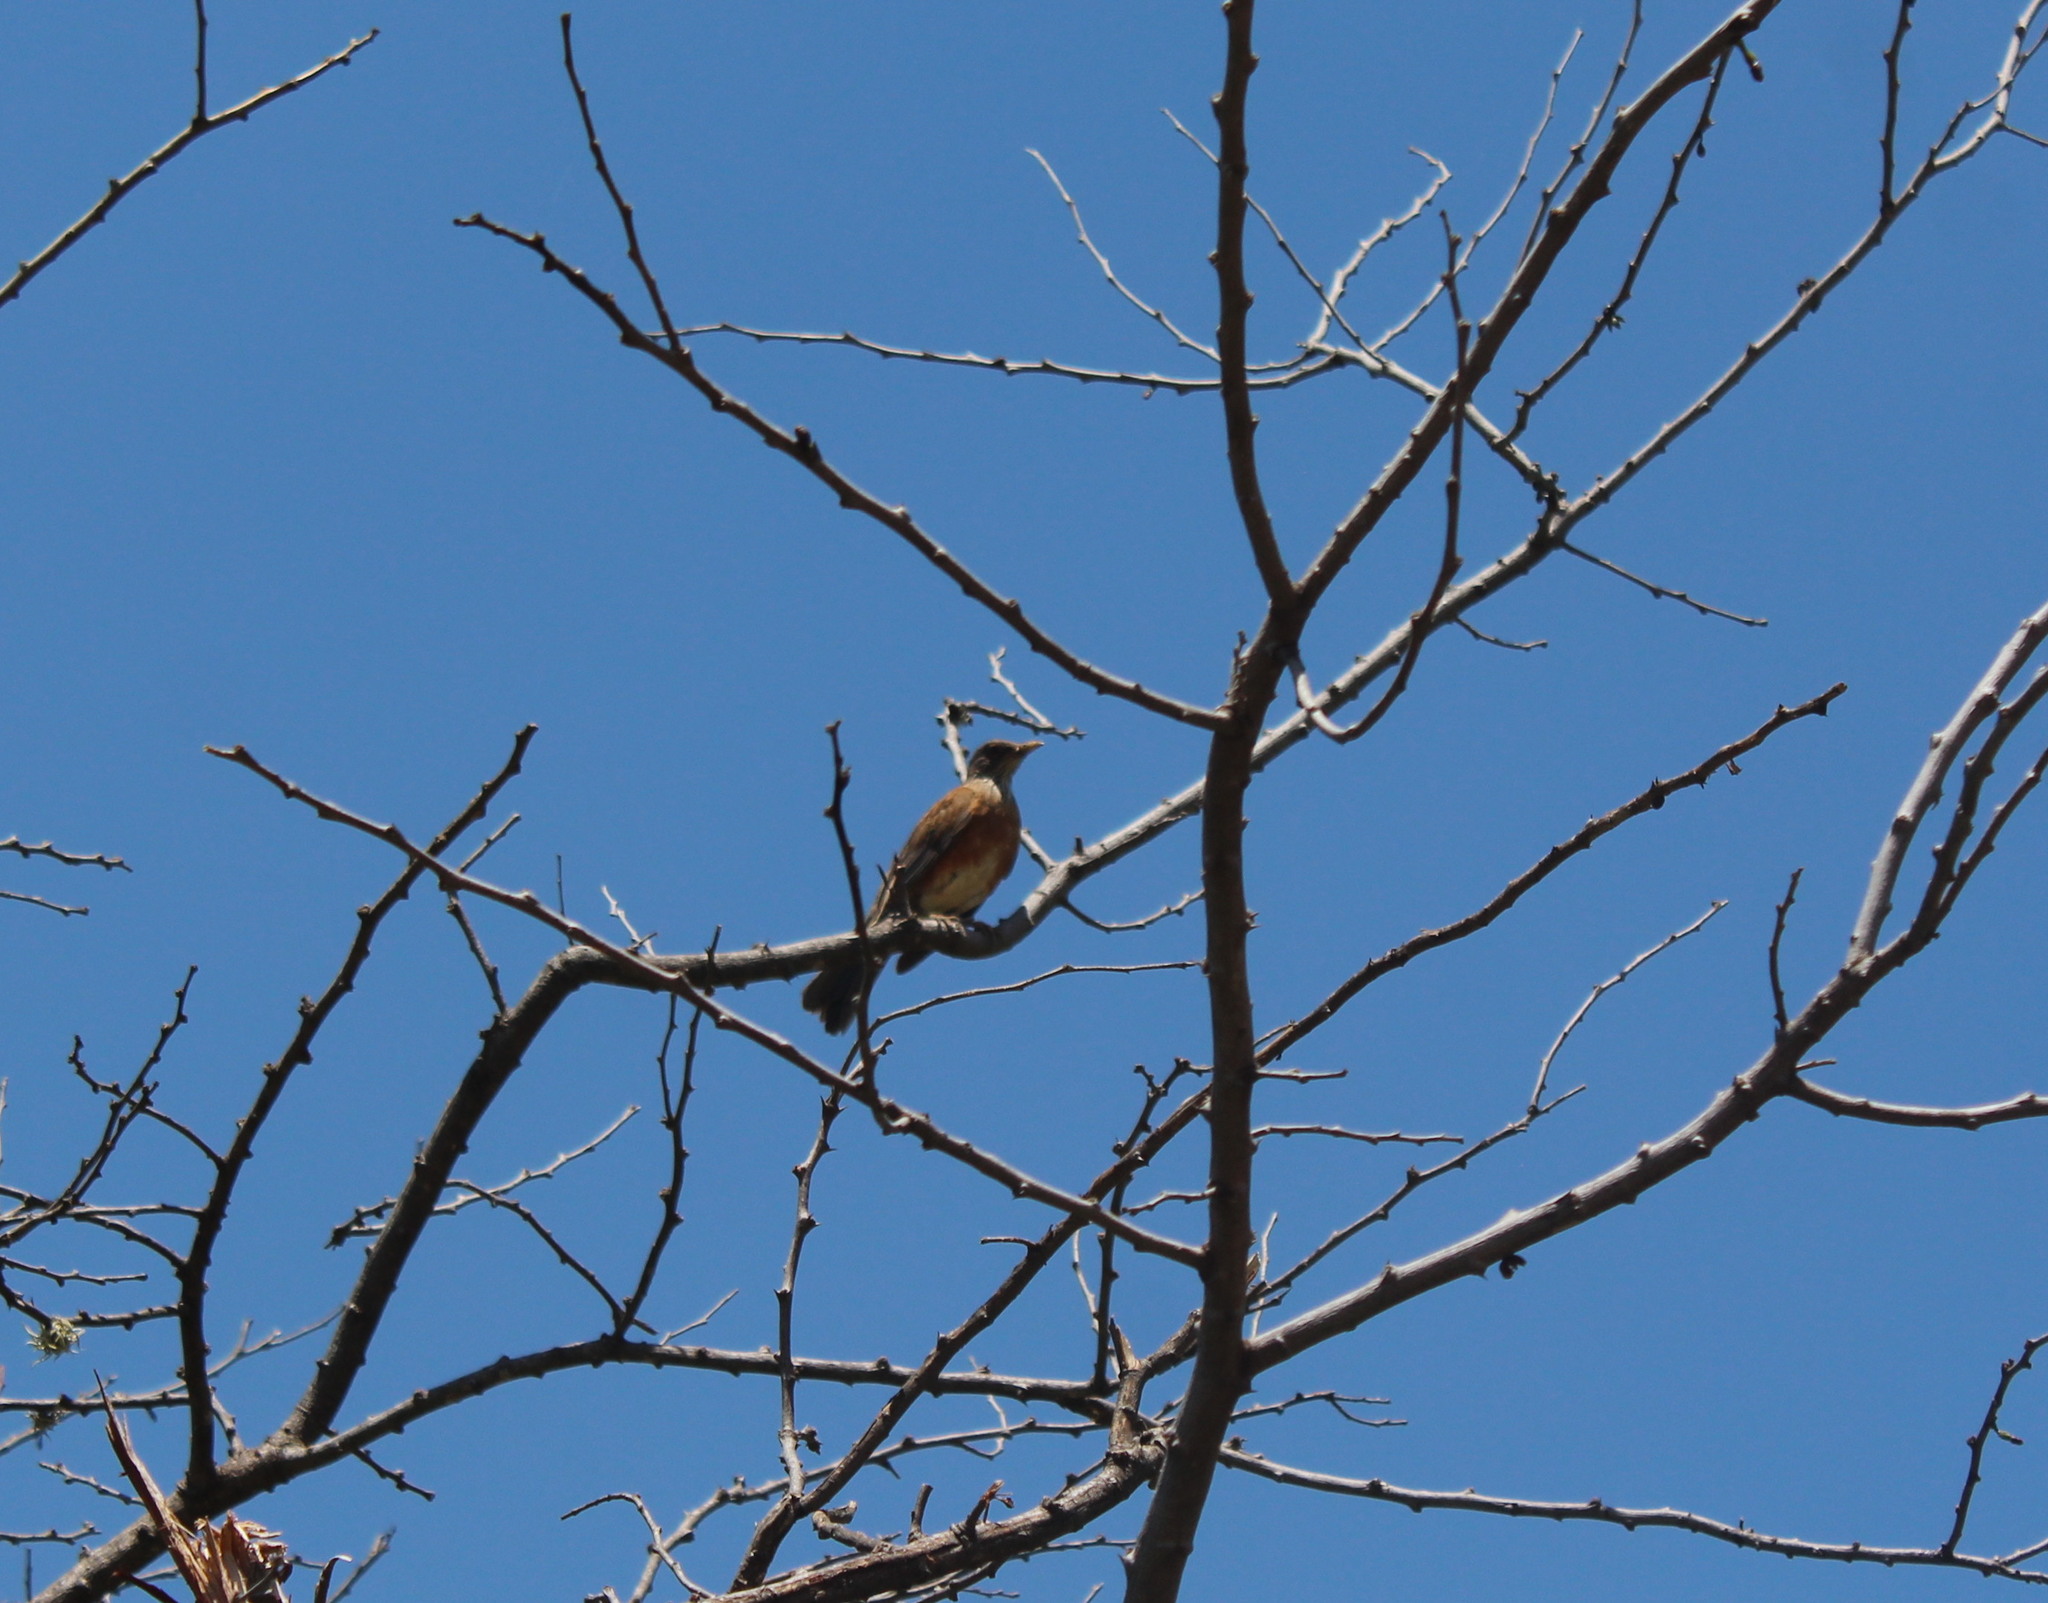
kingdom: Animalia
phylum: Chordata
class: Aves
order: Passeriformes
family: Turdidae
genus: Turdus
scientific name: Turdus rufopalliatus
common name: Rufous-backed robin
